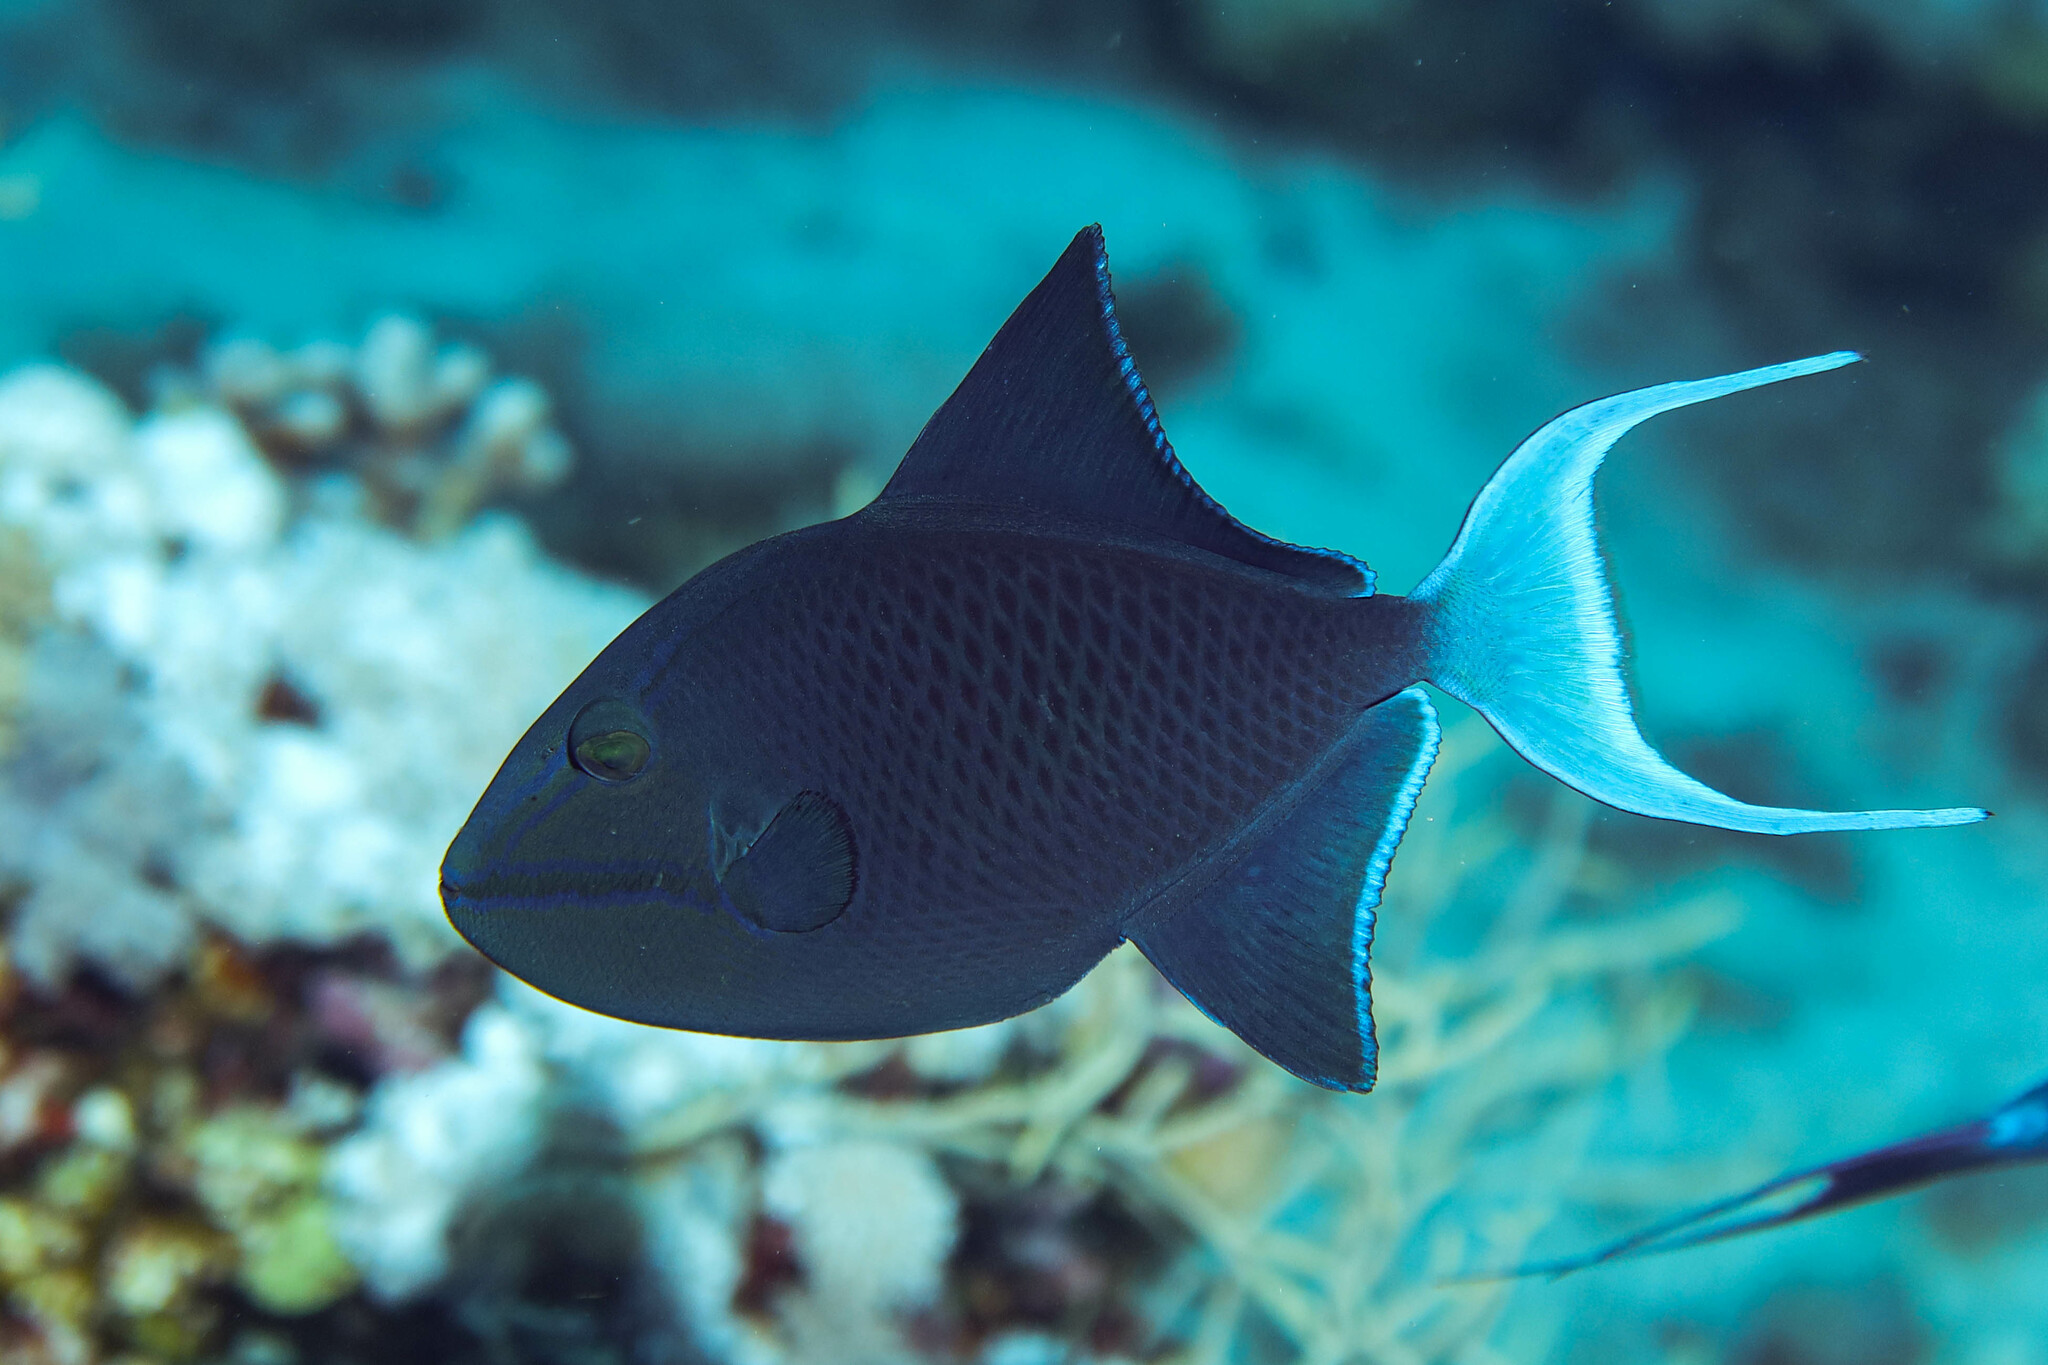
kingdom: Animalia
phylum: Chordata
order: Tetraodontiformes
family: Balistidae
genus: Odonus
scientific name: Odonus niger
